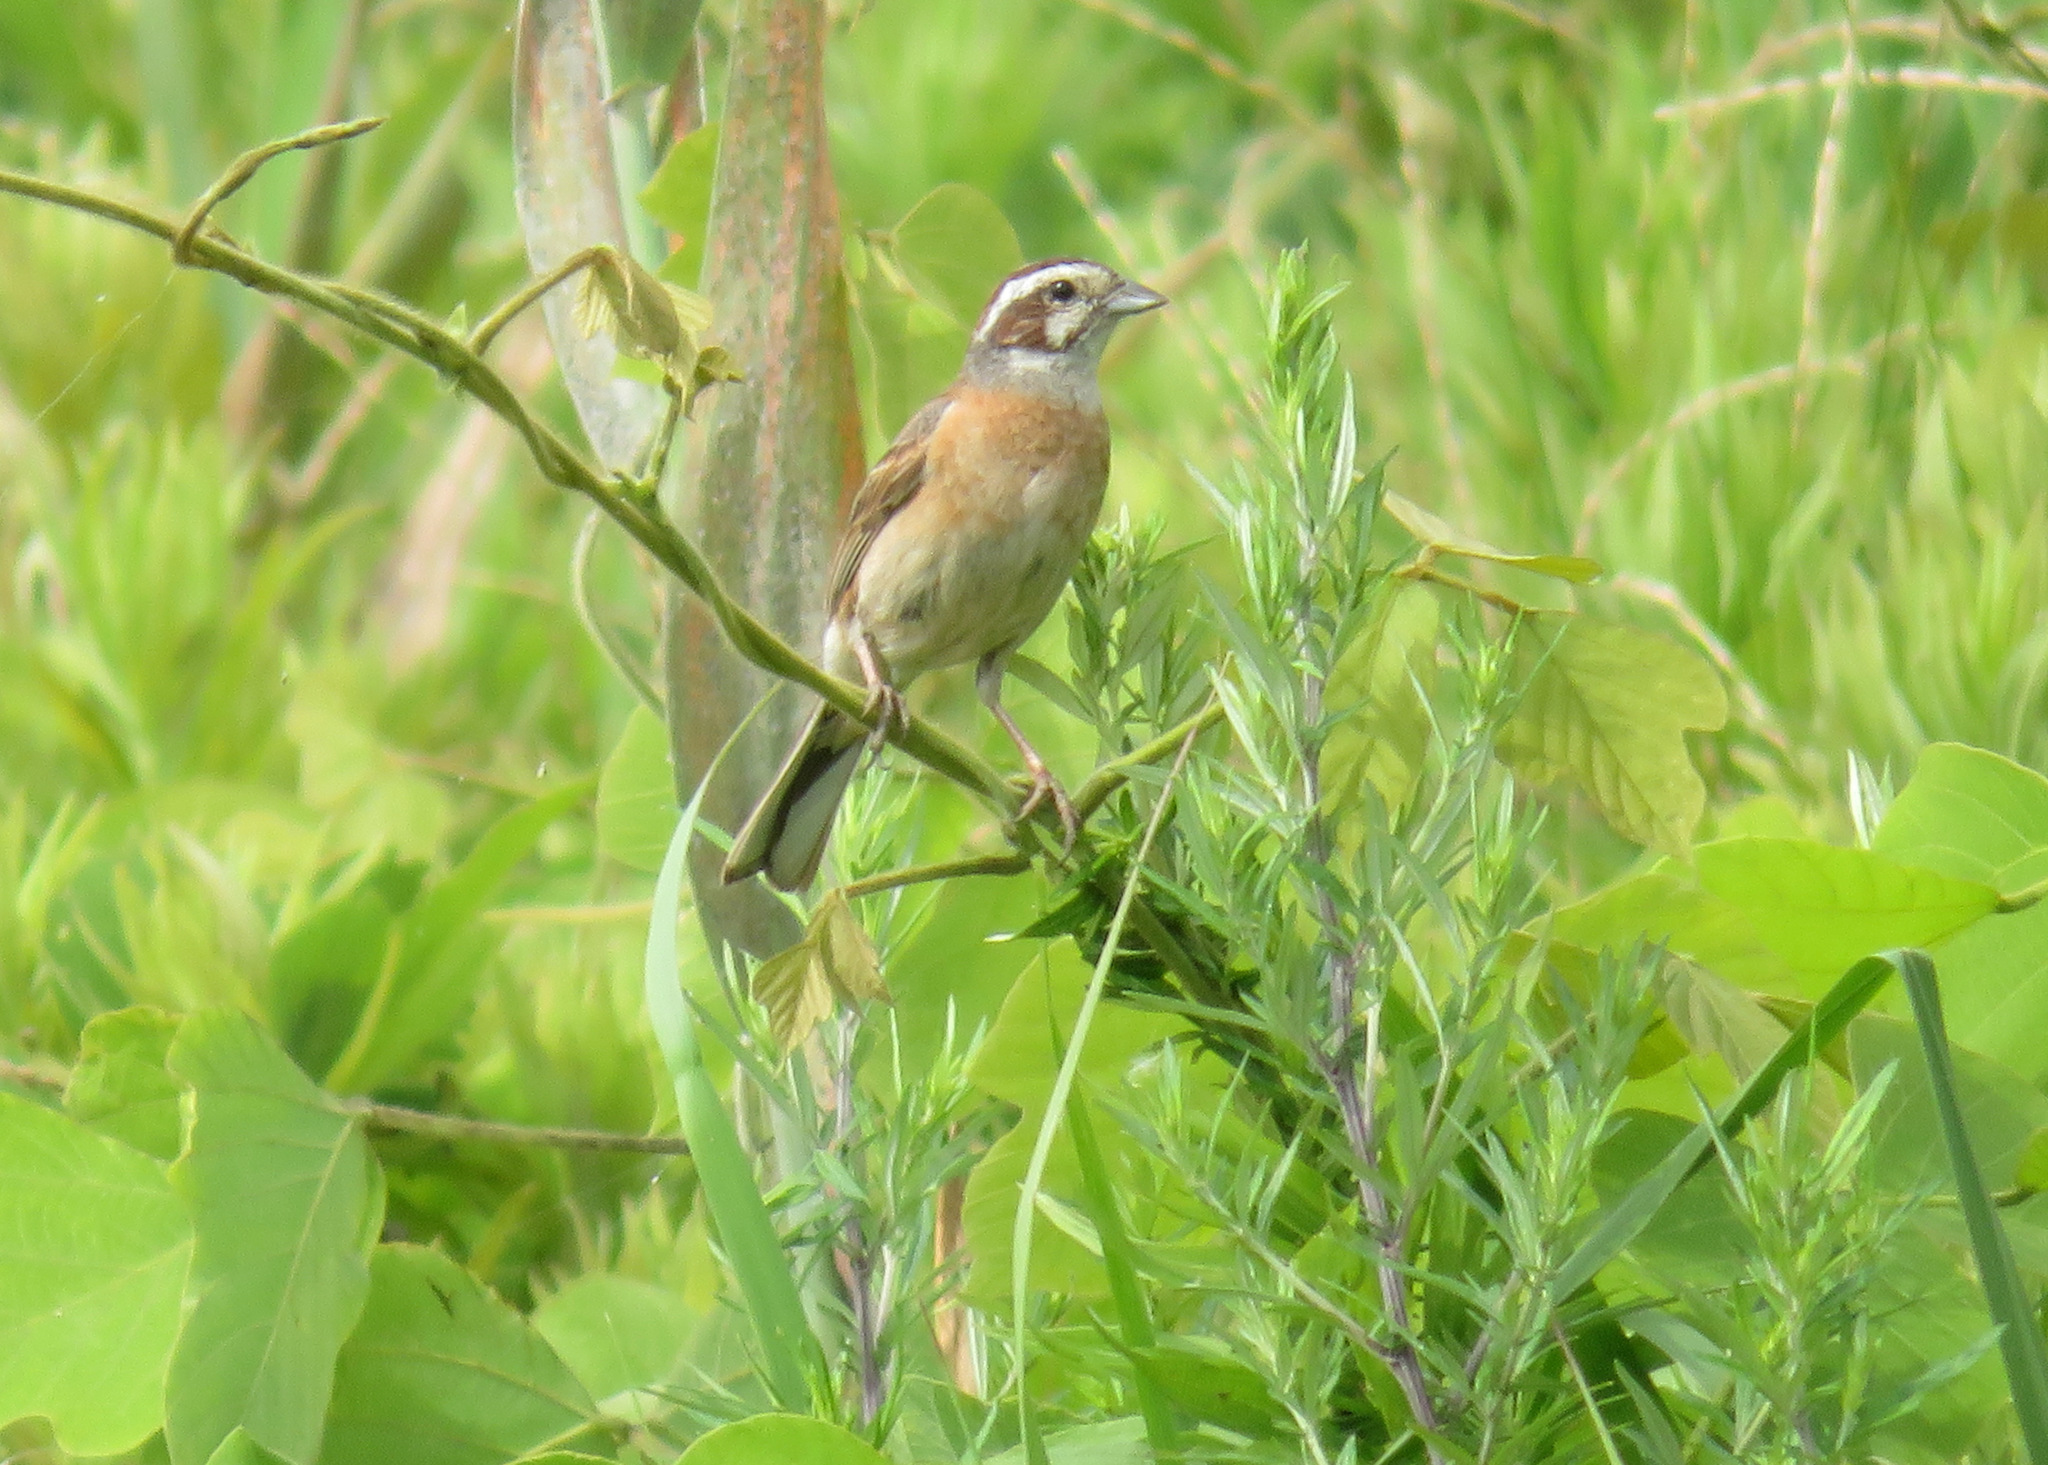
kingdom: Animalia
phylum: Chordata
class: Aves
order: Passeriformes
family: Emberizidae
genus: Emberiza
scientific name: Emberiza cioides
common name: Meadow bunting
